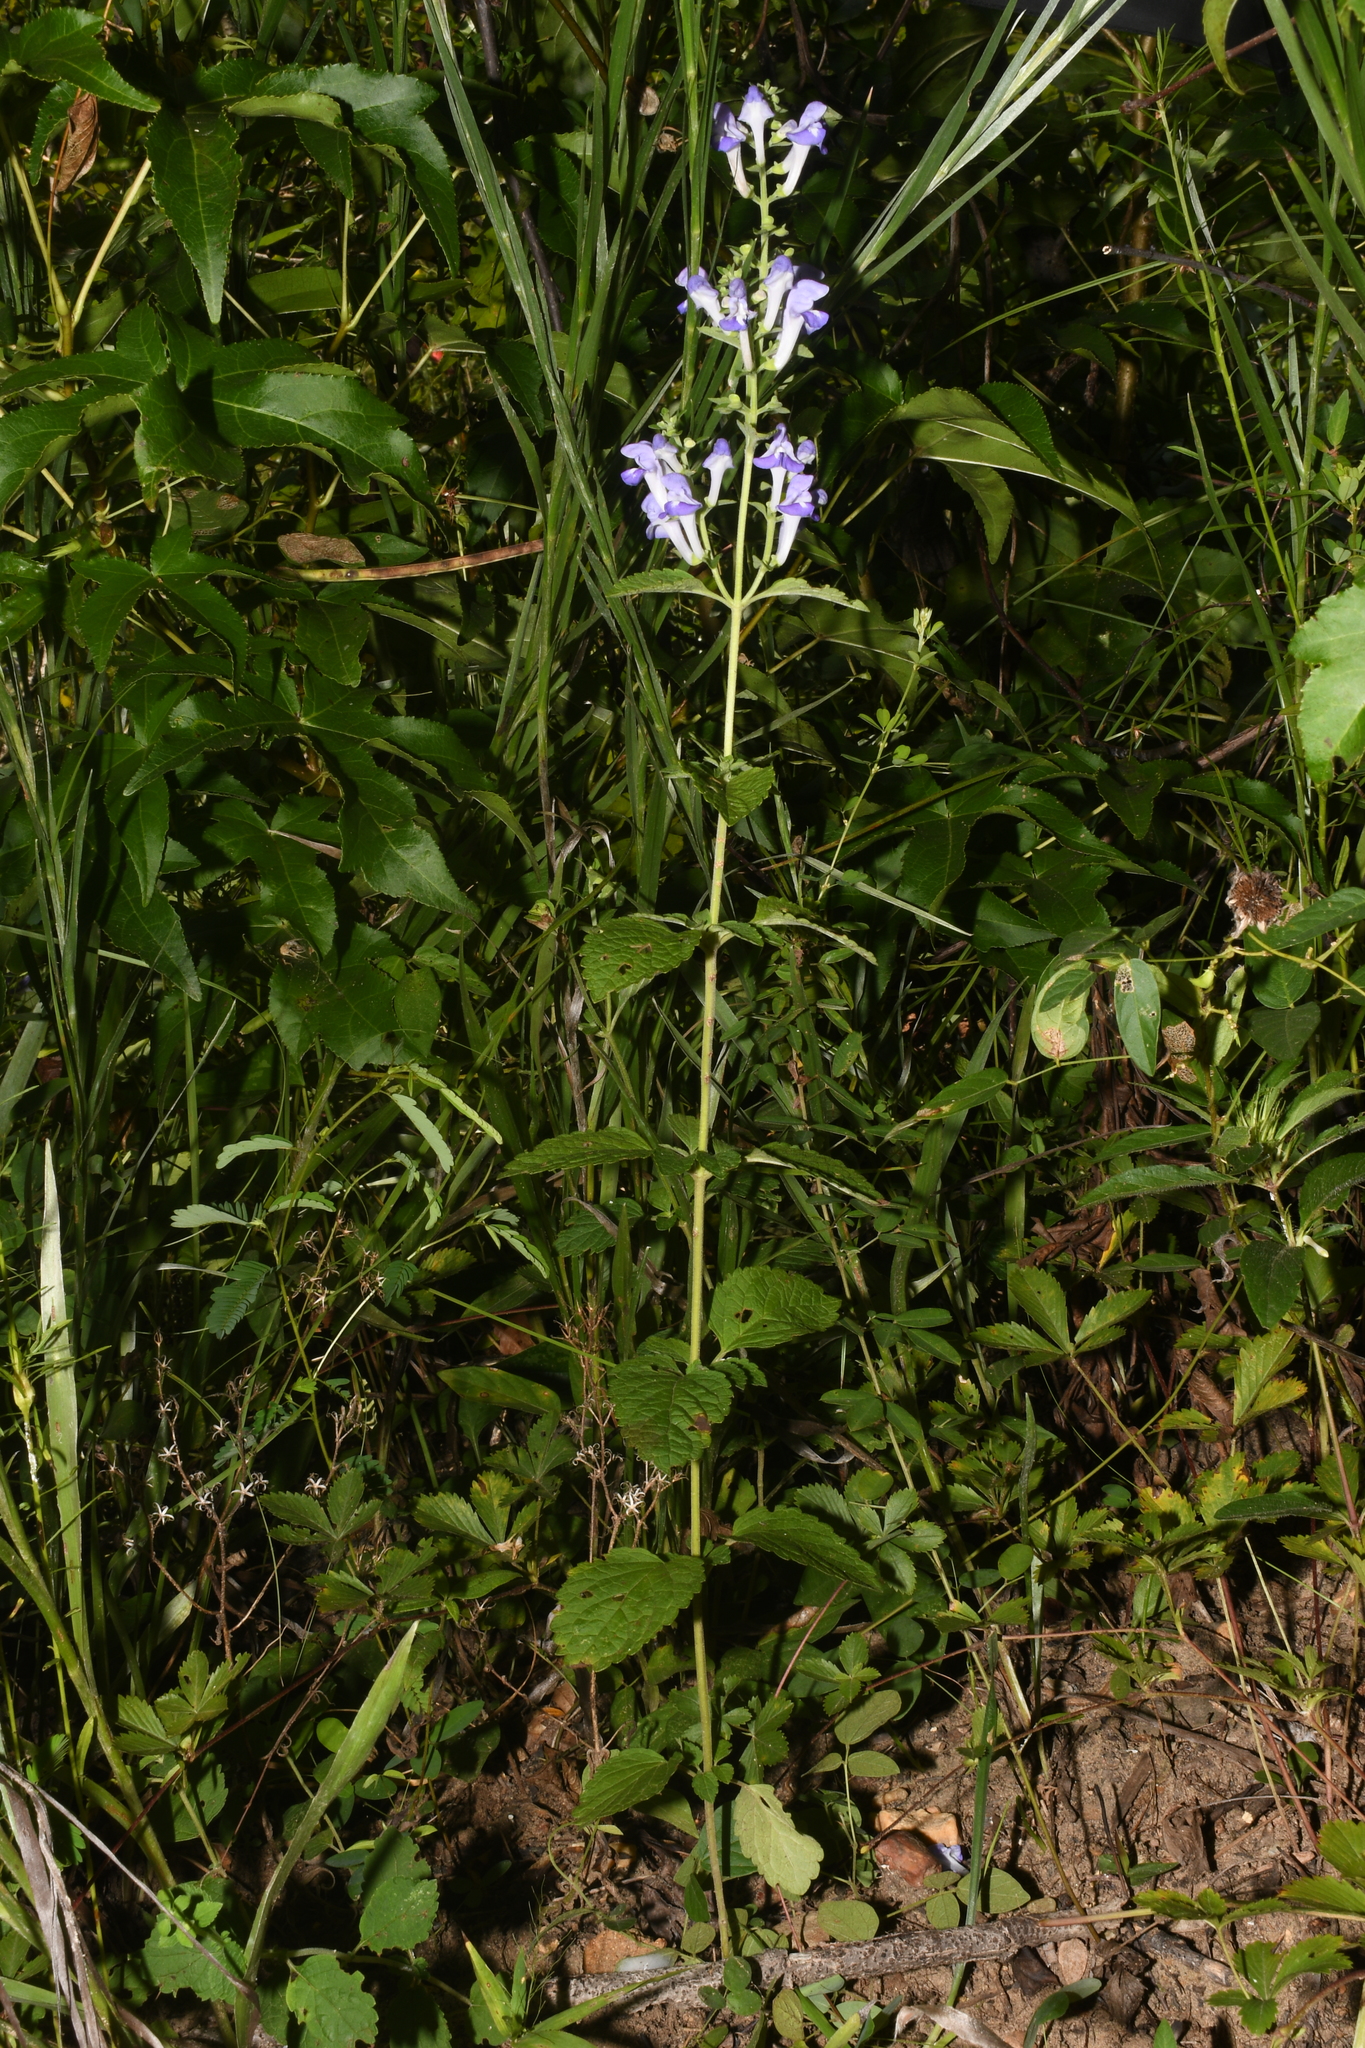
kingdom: Plantae
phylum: Tracheophyta
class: Magnoliopsida
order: Lamiales
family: Lamiaceae
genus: Scutellaria
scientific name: Scutellaria mellichampii
